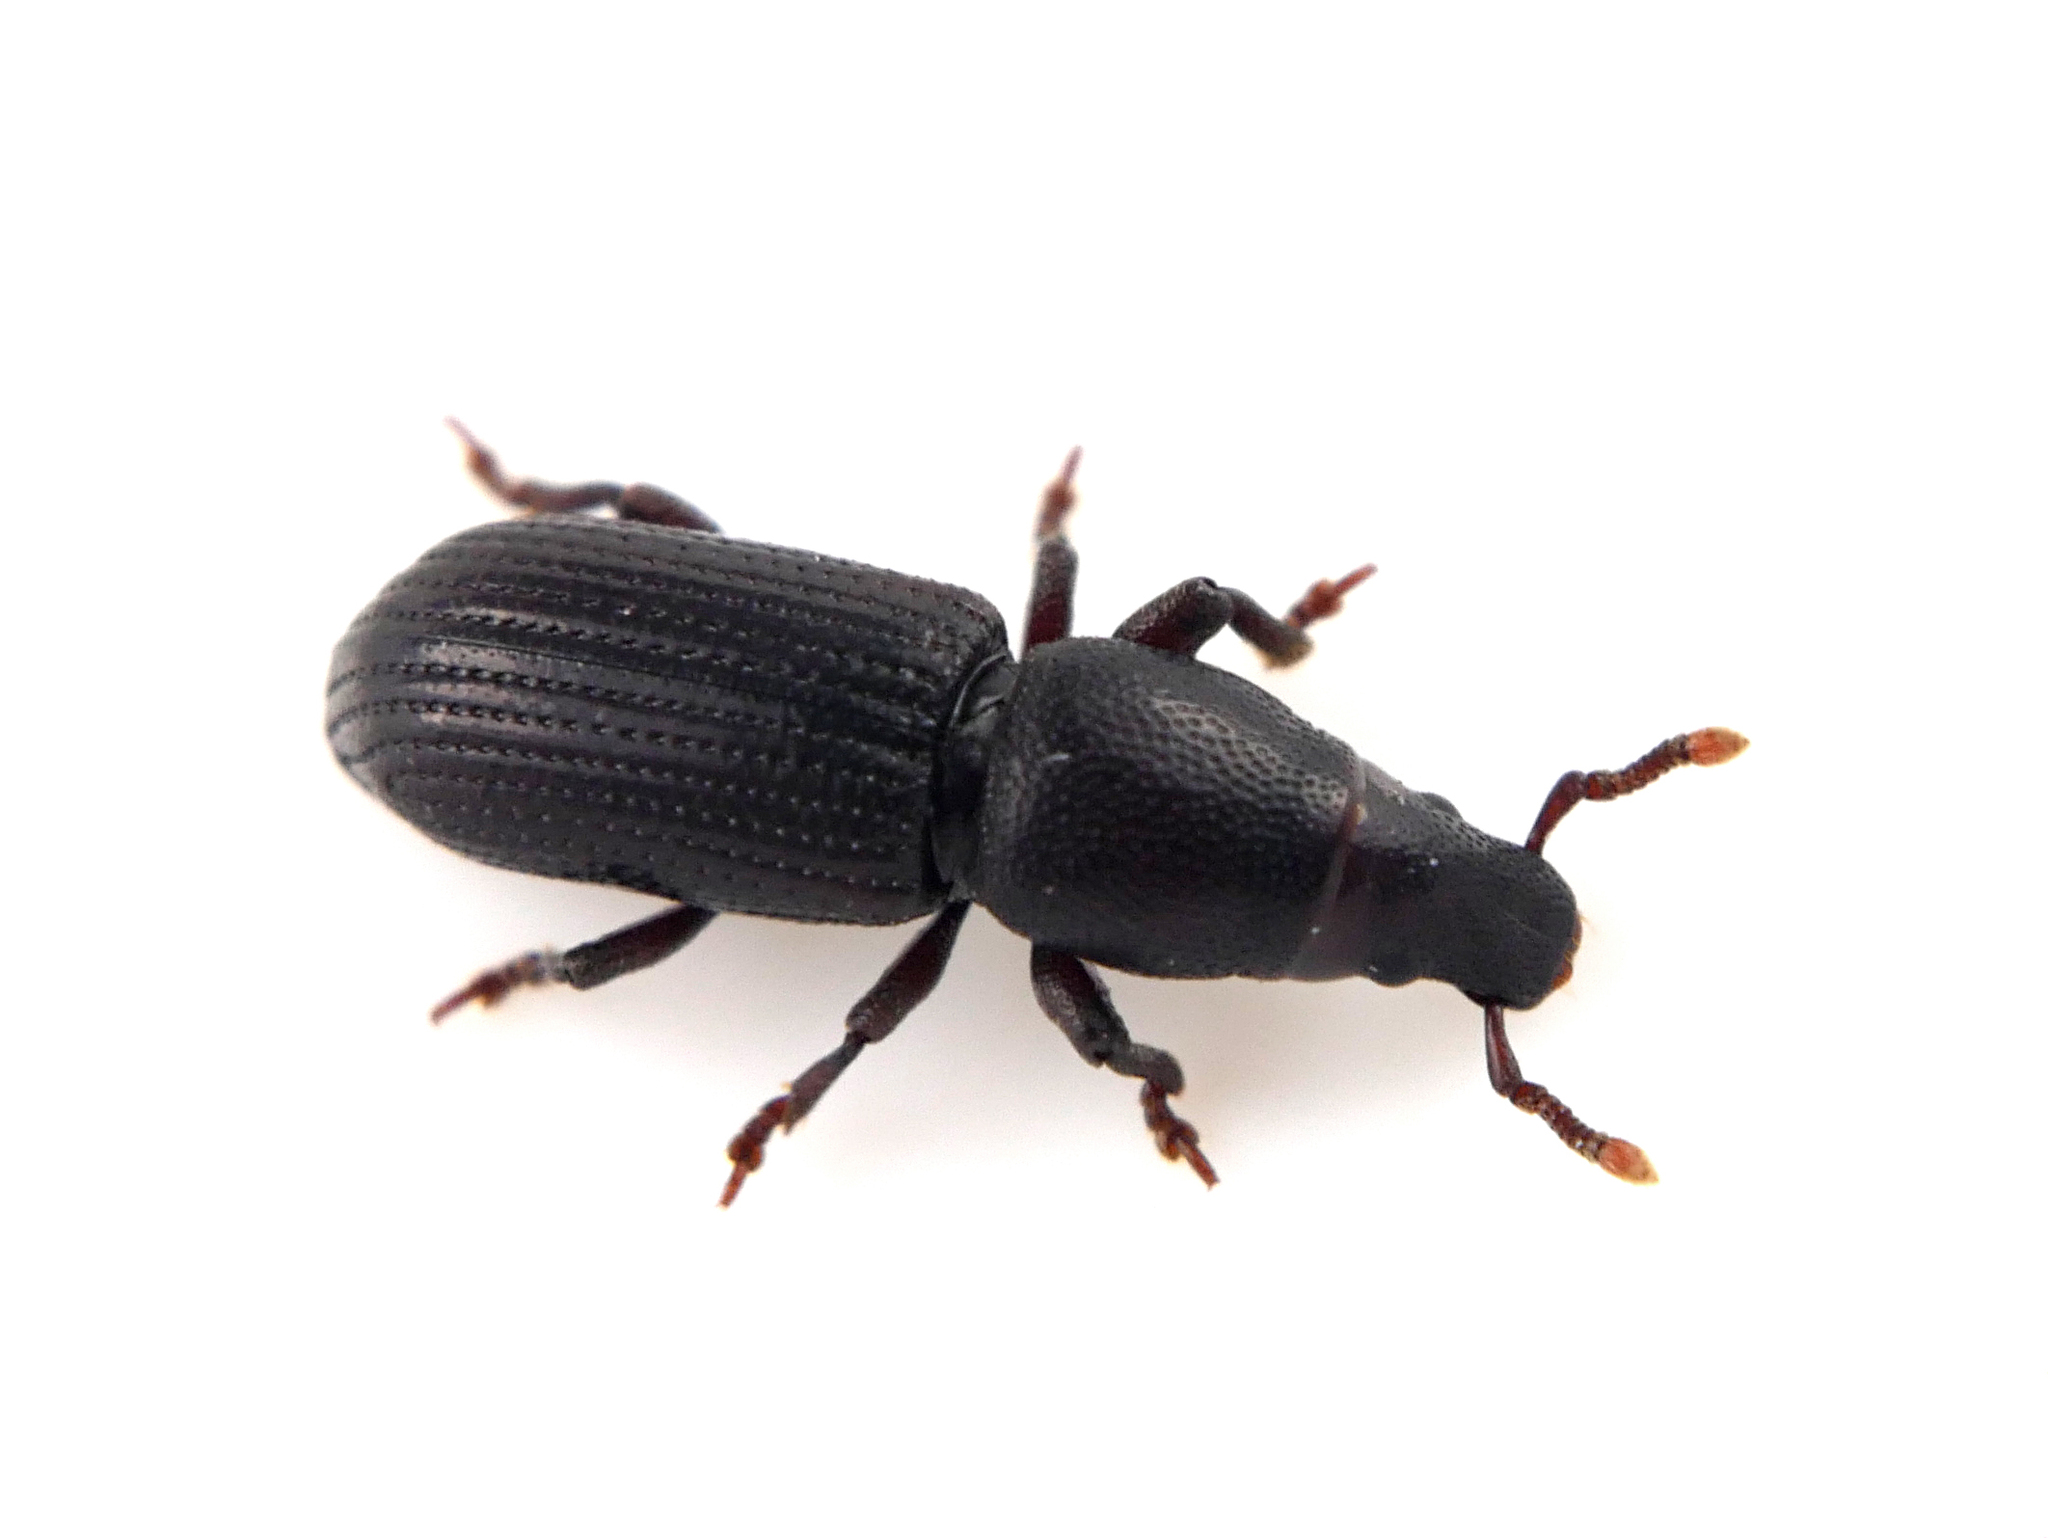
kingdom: Animalia
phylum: Arthropoda
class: Insecta
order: Coleoptera
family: Curculionidae
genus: Rhyncolus
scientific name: Rhyncolus ater
